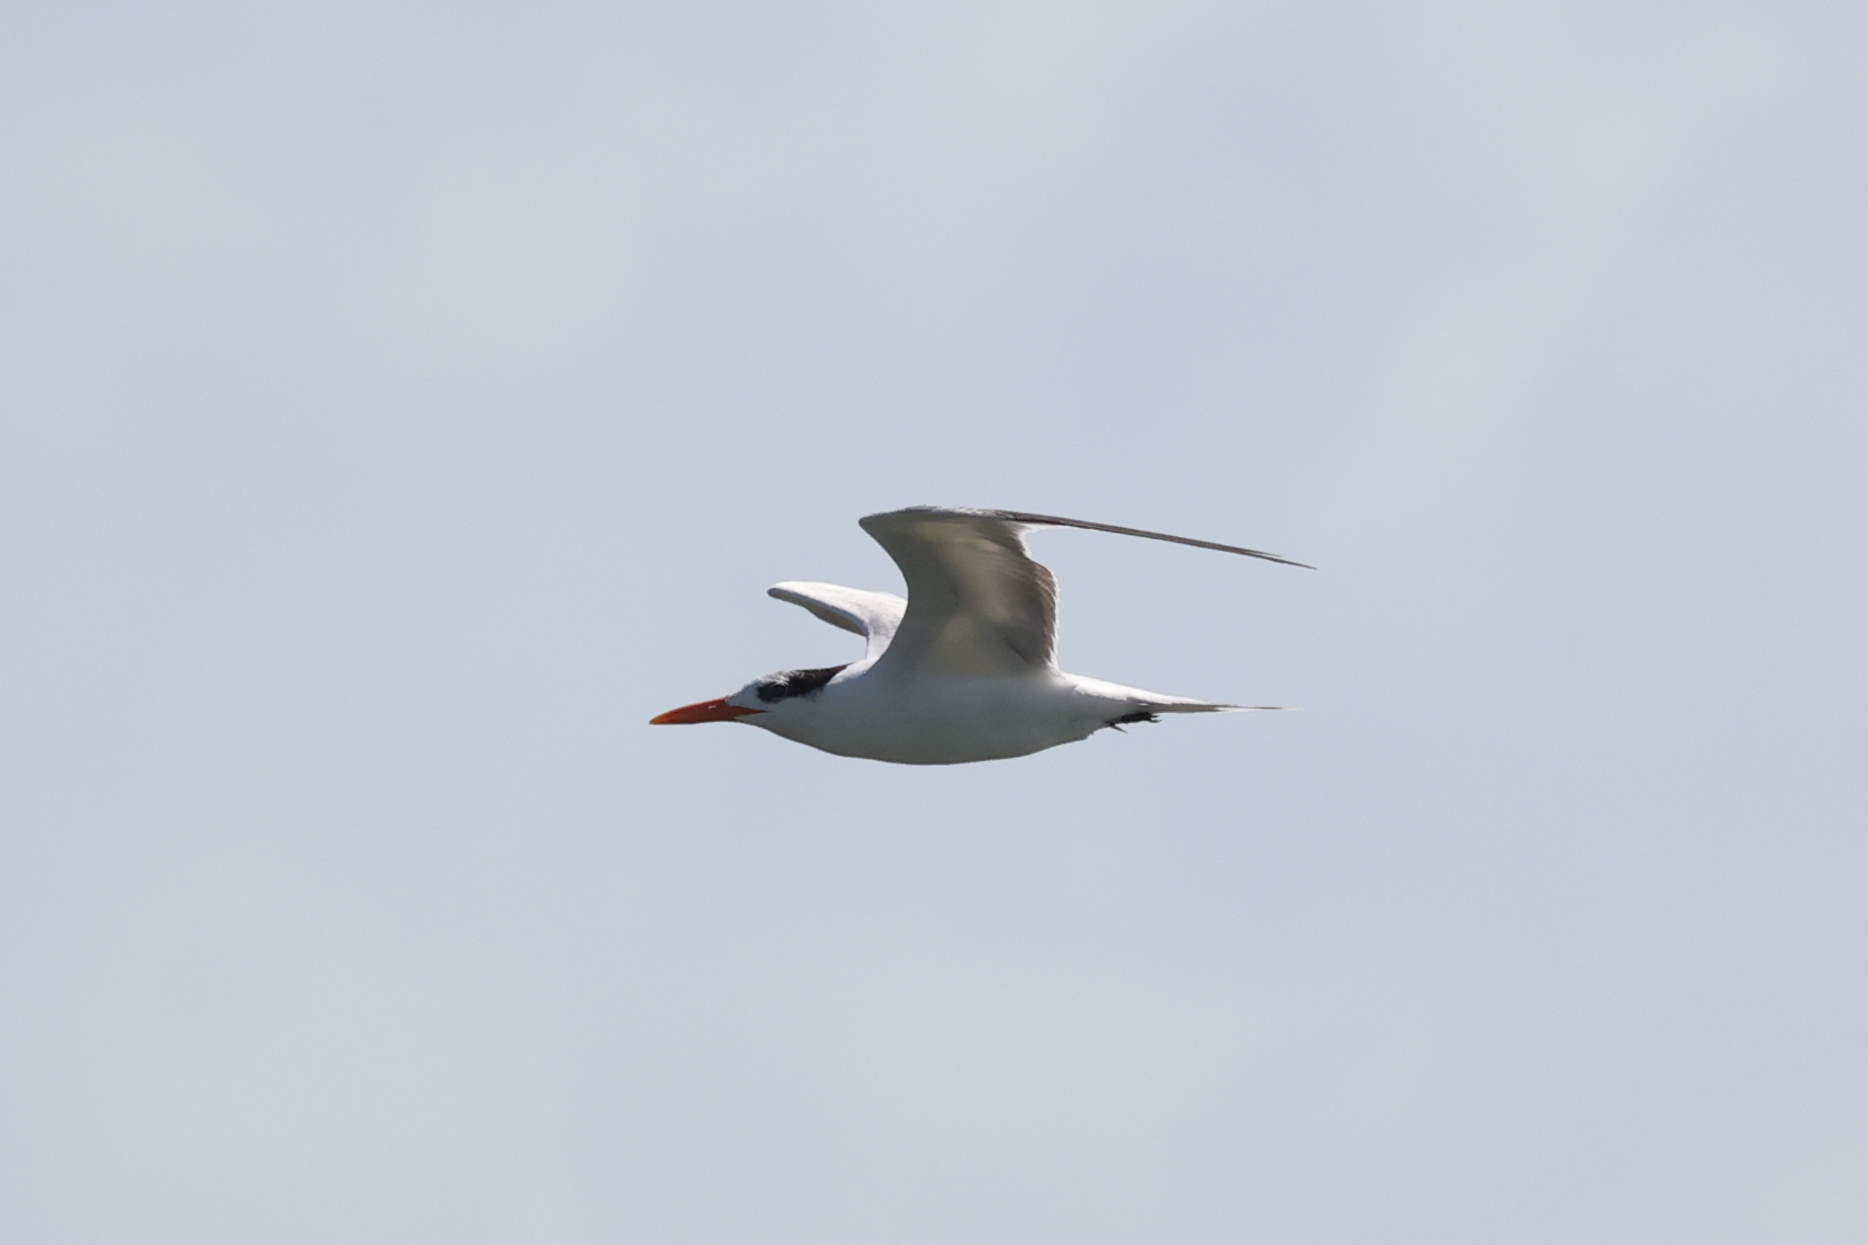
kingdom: Animalia
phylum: Chordata
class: Aves
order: Charadriiformes
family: Laridae
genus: Thalasseus
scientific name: Thalasseus maximus
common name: Royal tern
